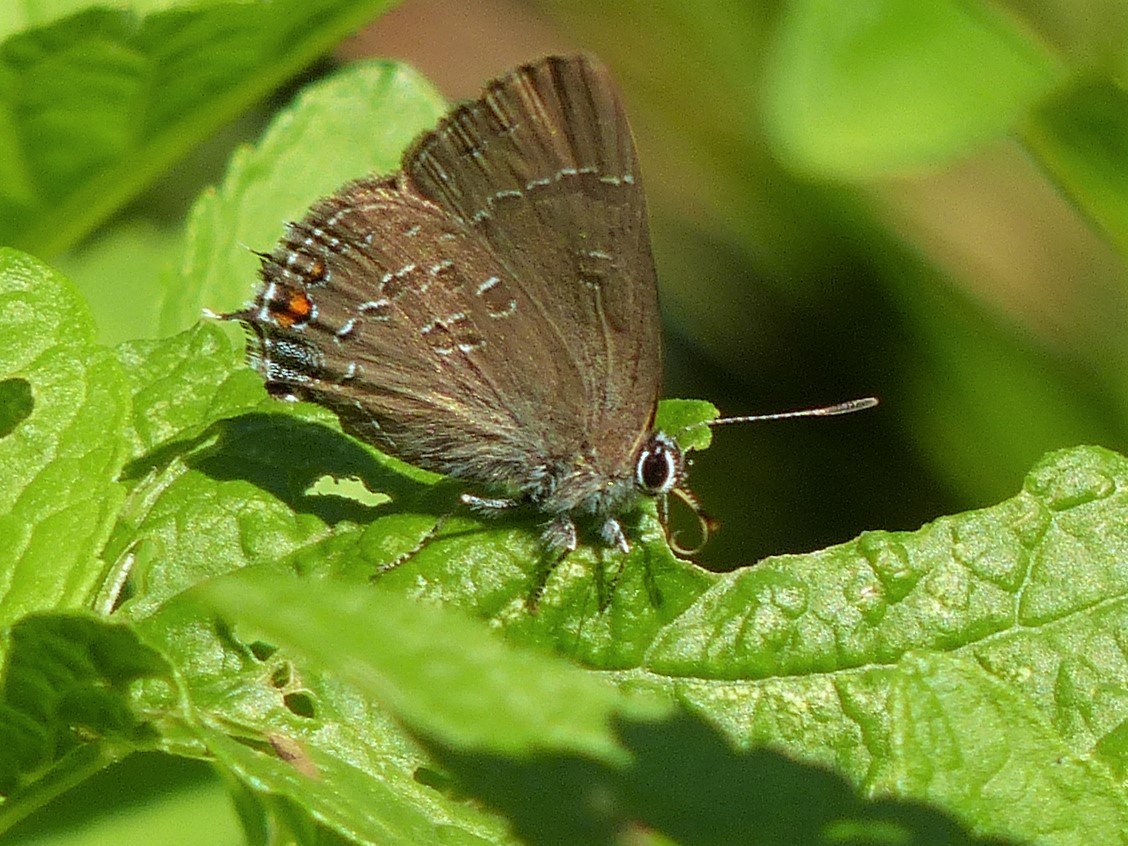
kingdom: Animalia
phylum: Arthropoda
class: Insecta
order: Lepidoptera
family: Lycaenidae
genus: Satyrium
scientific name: Satyrium calanus
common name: Banded hairstreak
